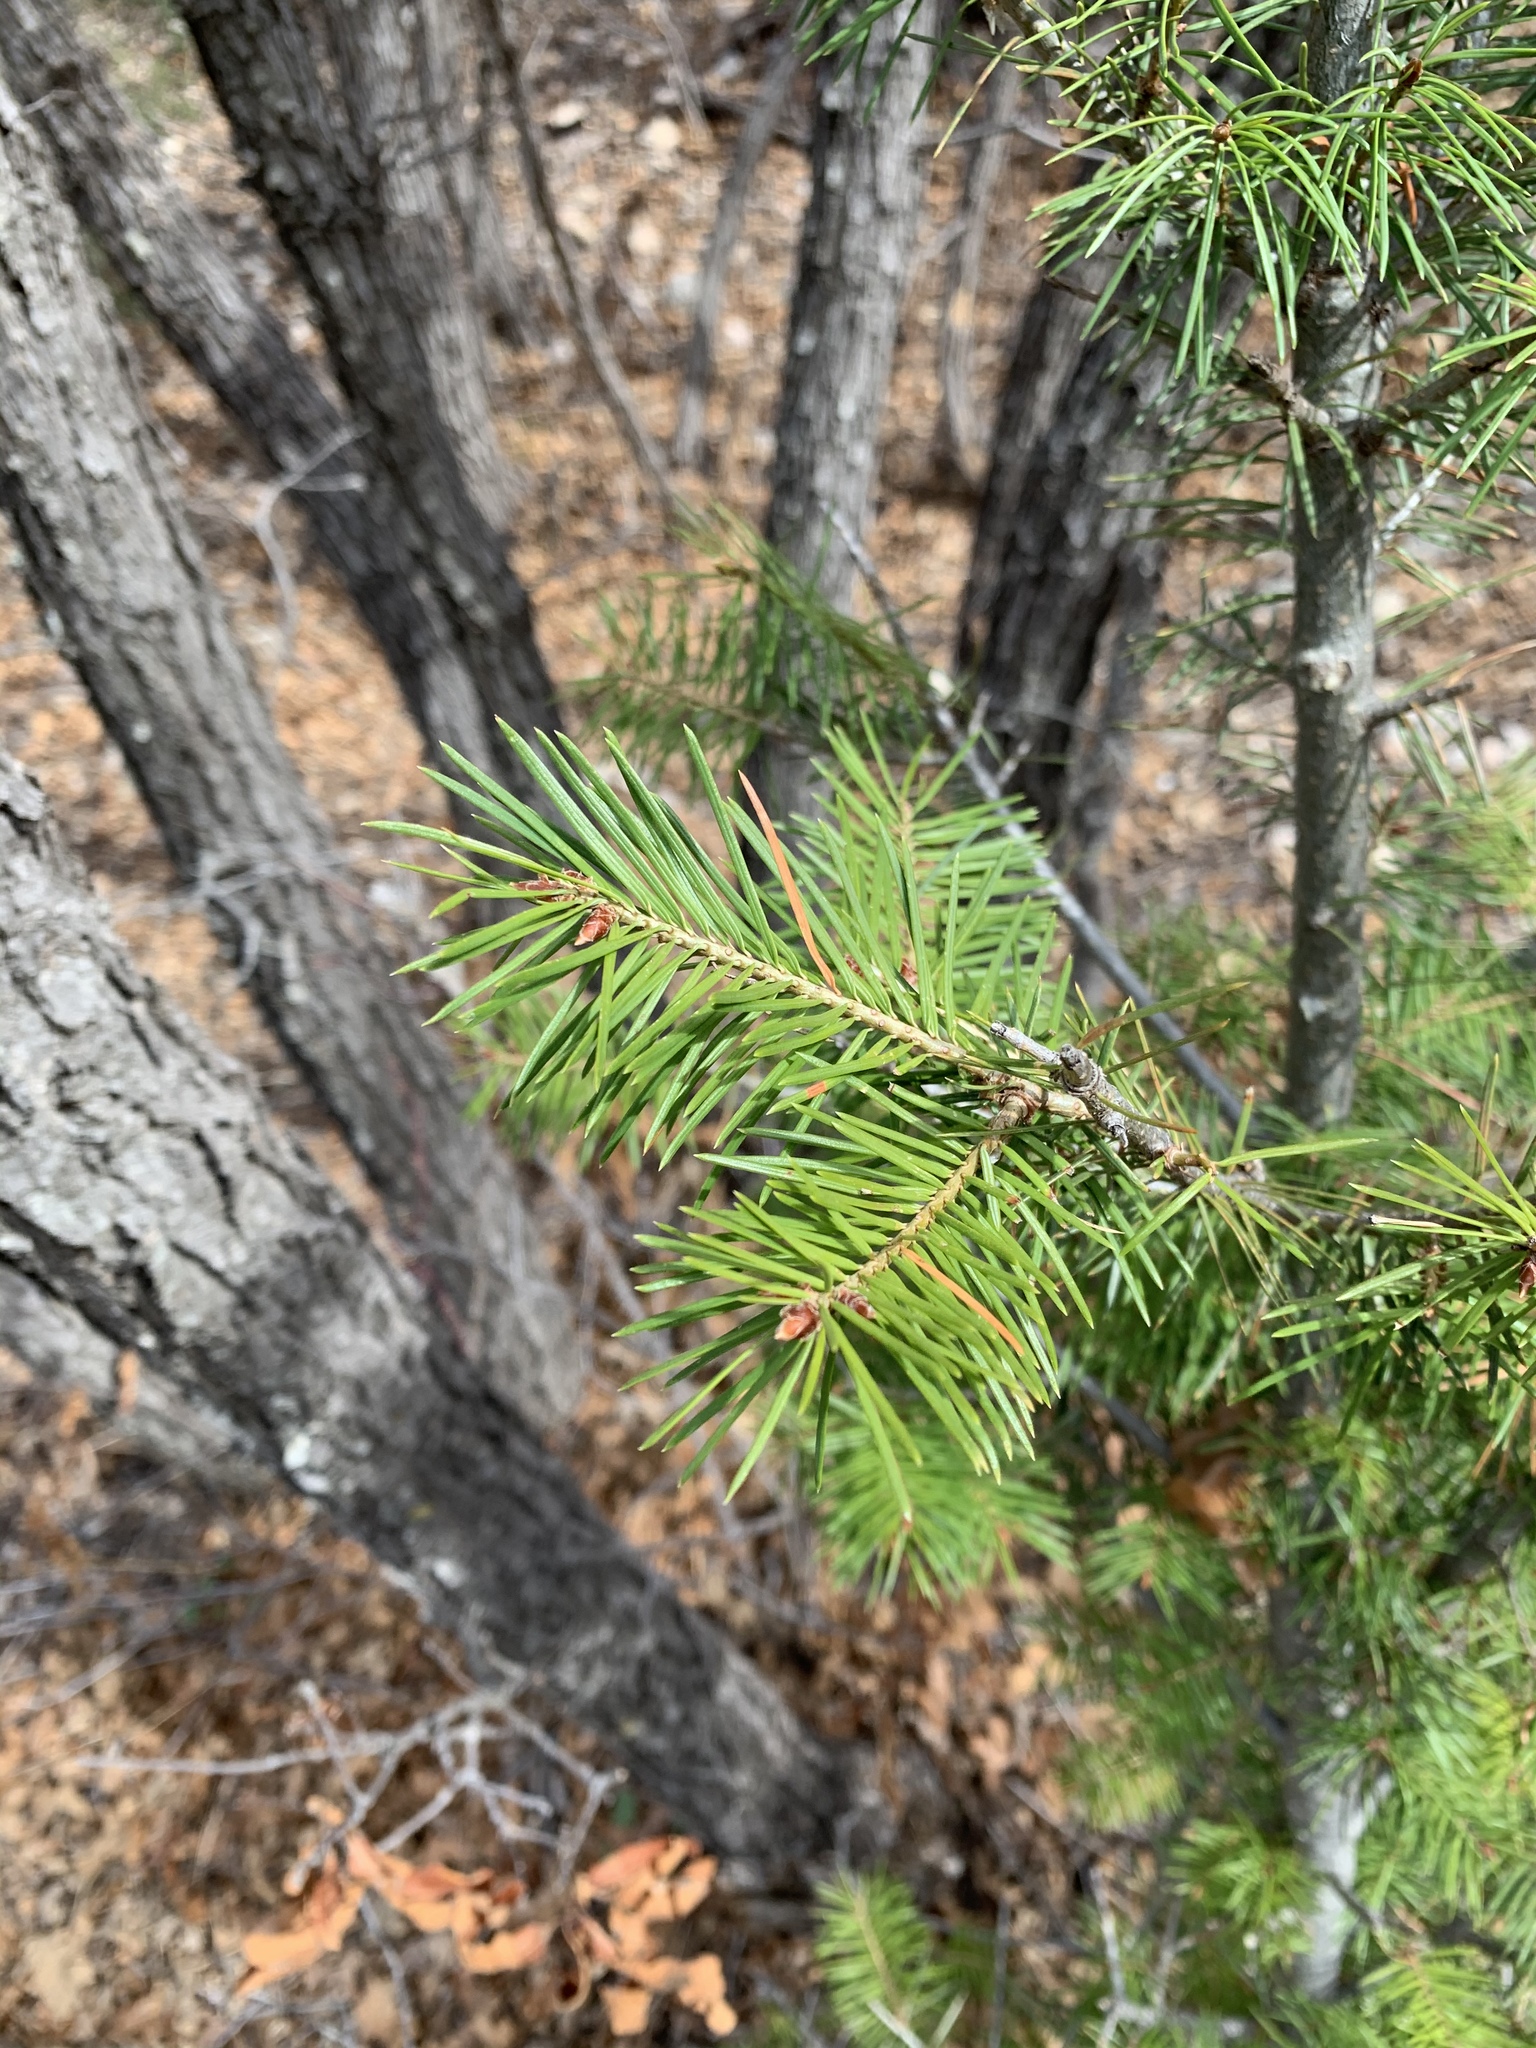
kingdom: Plantae
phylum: Tracheophyta
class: Pinopsida
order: Pinales
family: Pinaceae
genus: Pseudotsuga
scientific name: Pseudotsuga menziesii
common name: Douglas fir
